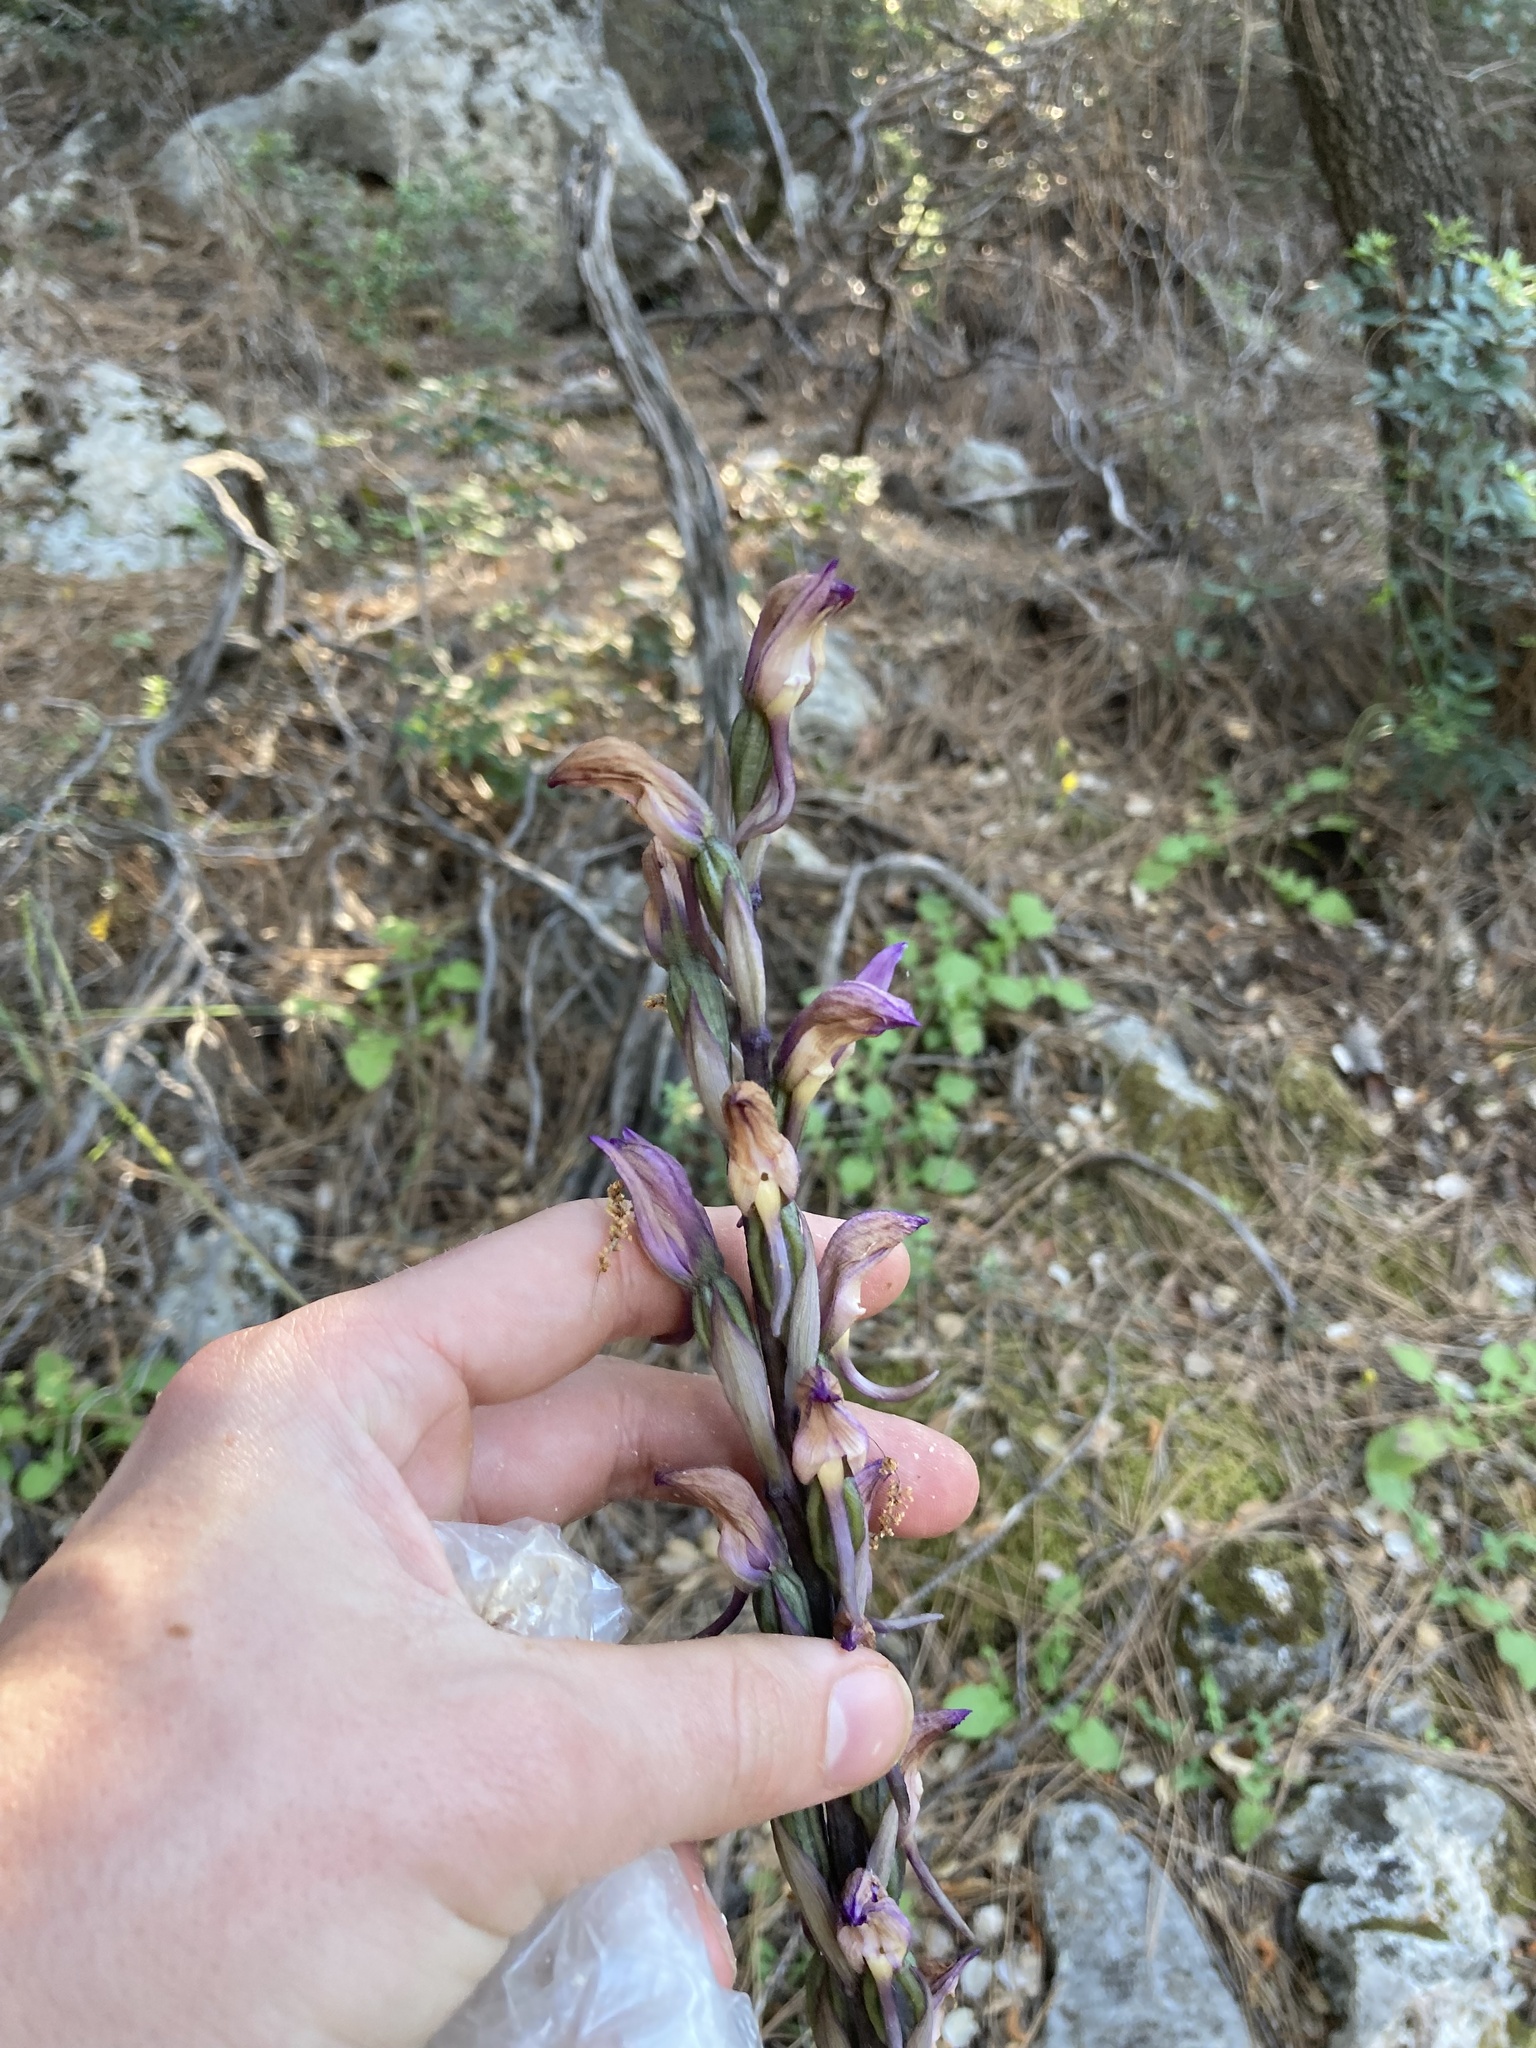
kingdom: Plantae
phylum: Tracheophyta
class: Liliopsida
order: Asparagales
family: Orchidaceae
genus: Limodorum
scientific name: Limodorum abortivum
